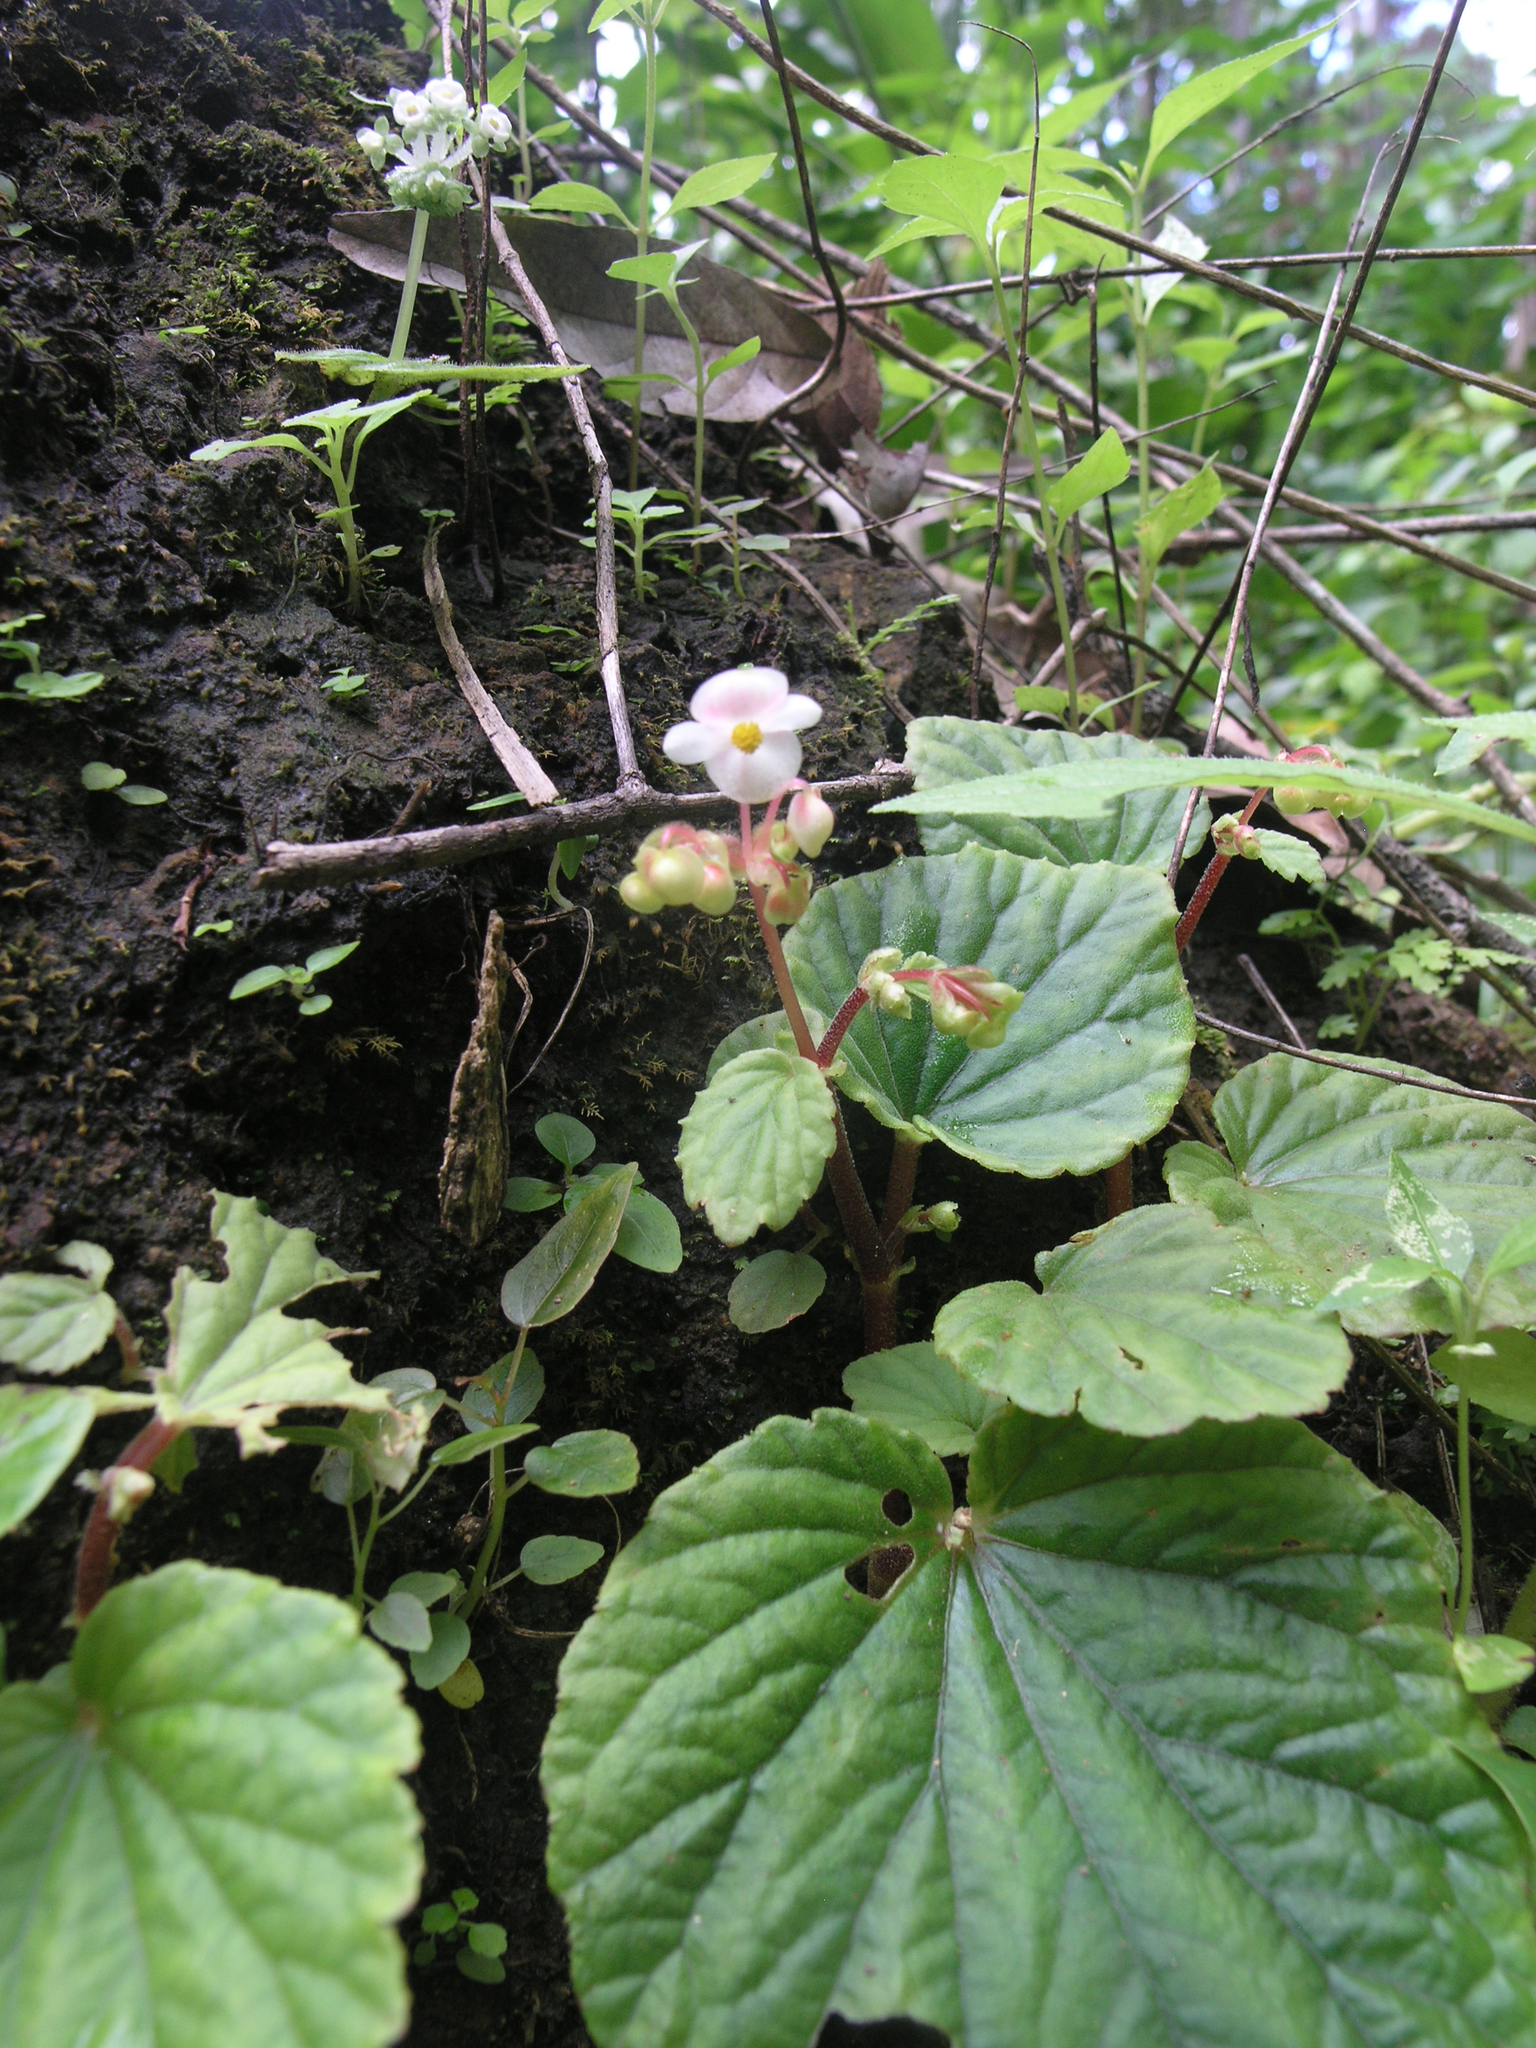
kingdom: Plantae
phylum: Tracheophyta
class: Magnoliopsida
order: Cucurbitales
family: Begoniaceae
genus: Begonia
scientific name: Begonia sinuata
